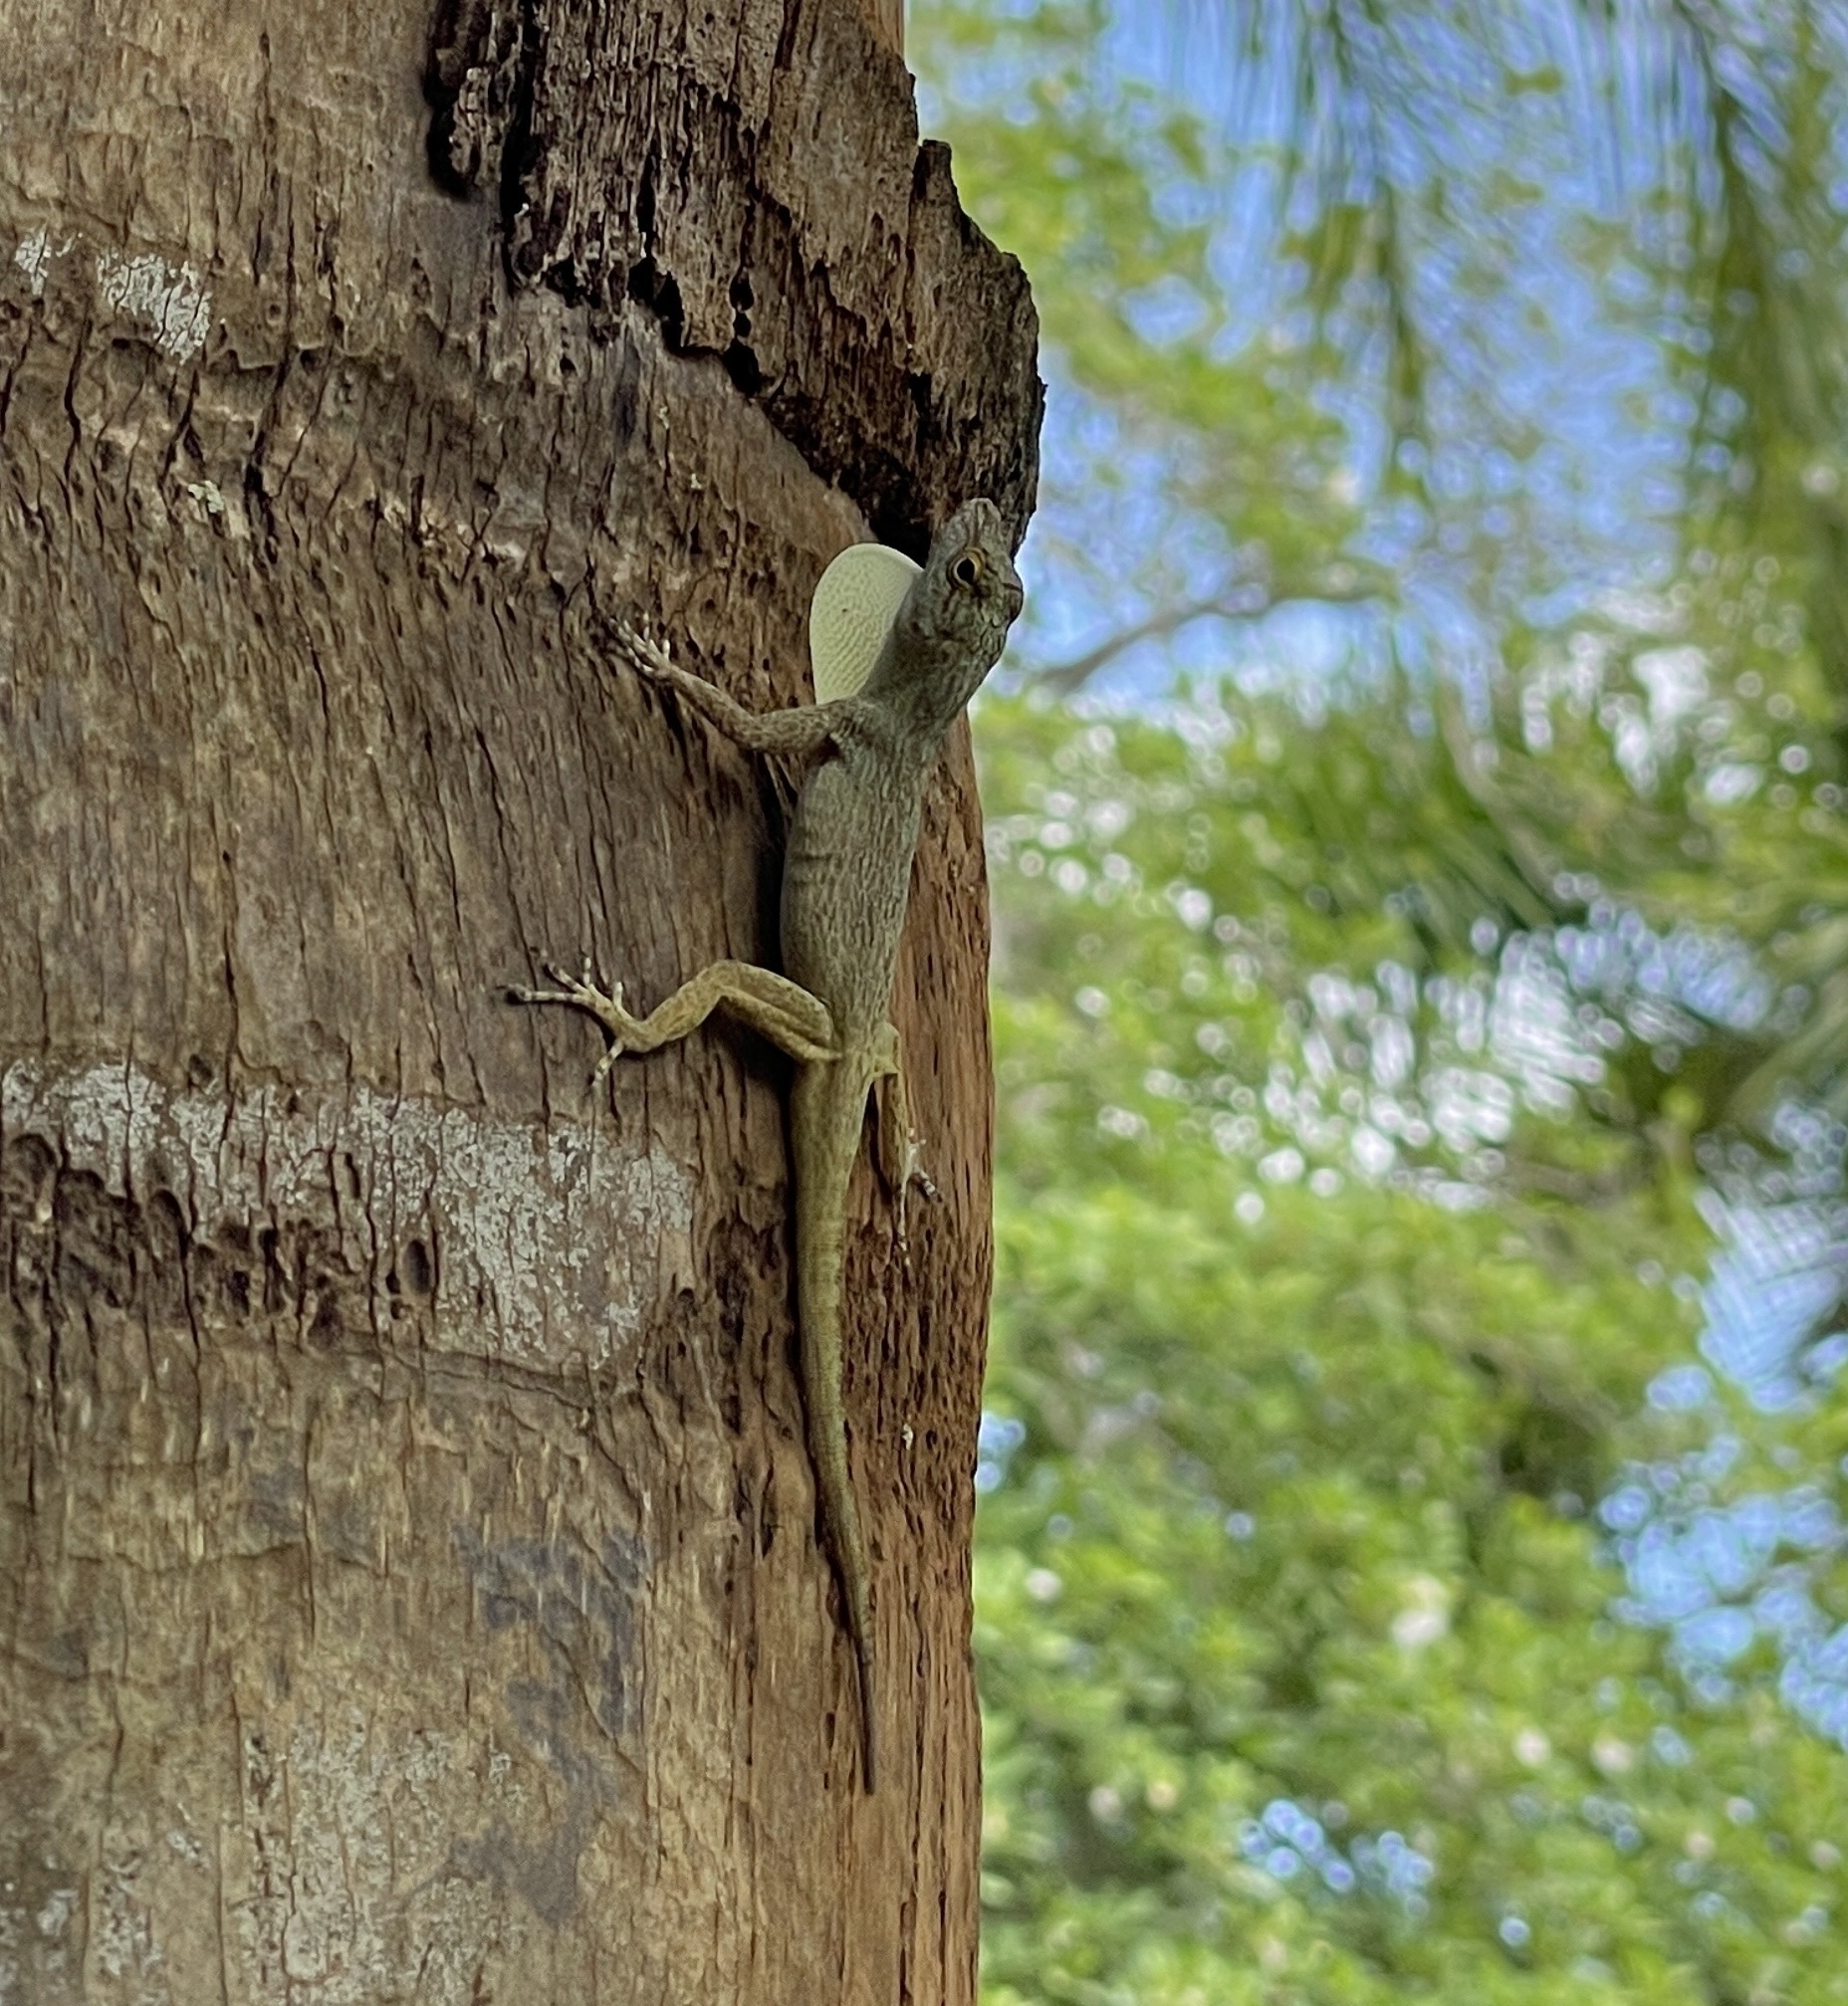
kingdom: Animalia
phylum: Chordata
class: Squamata
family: Dactyloidae
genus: Anolis
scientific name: Anolis distichus
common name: Bark anole
